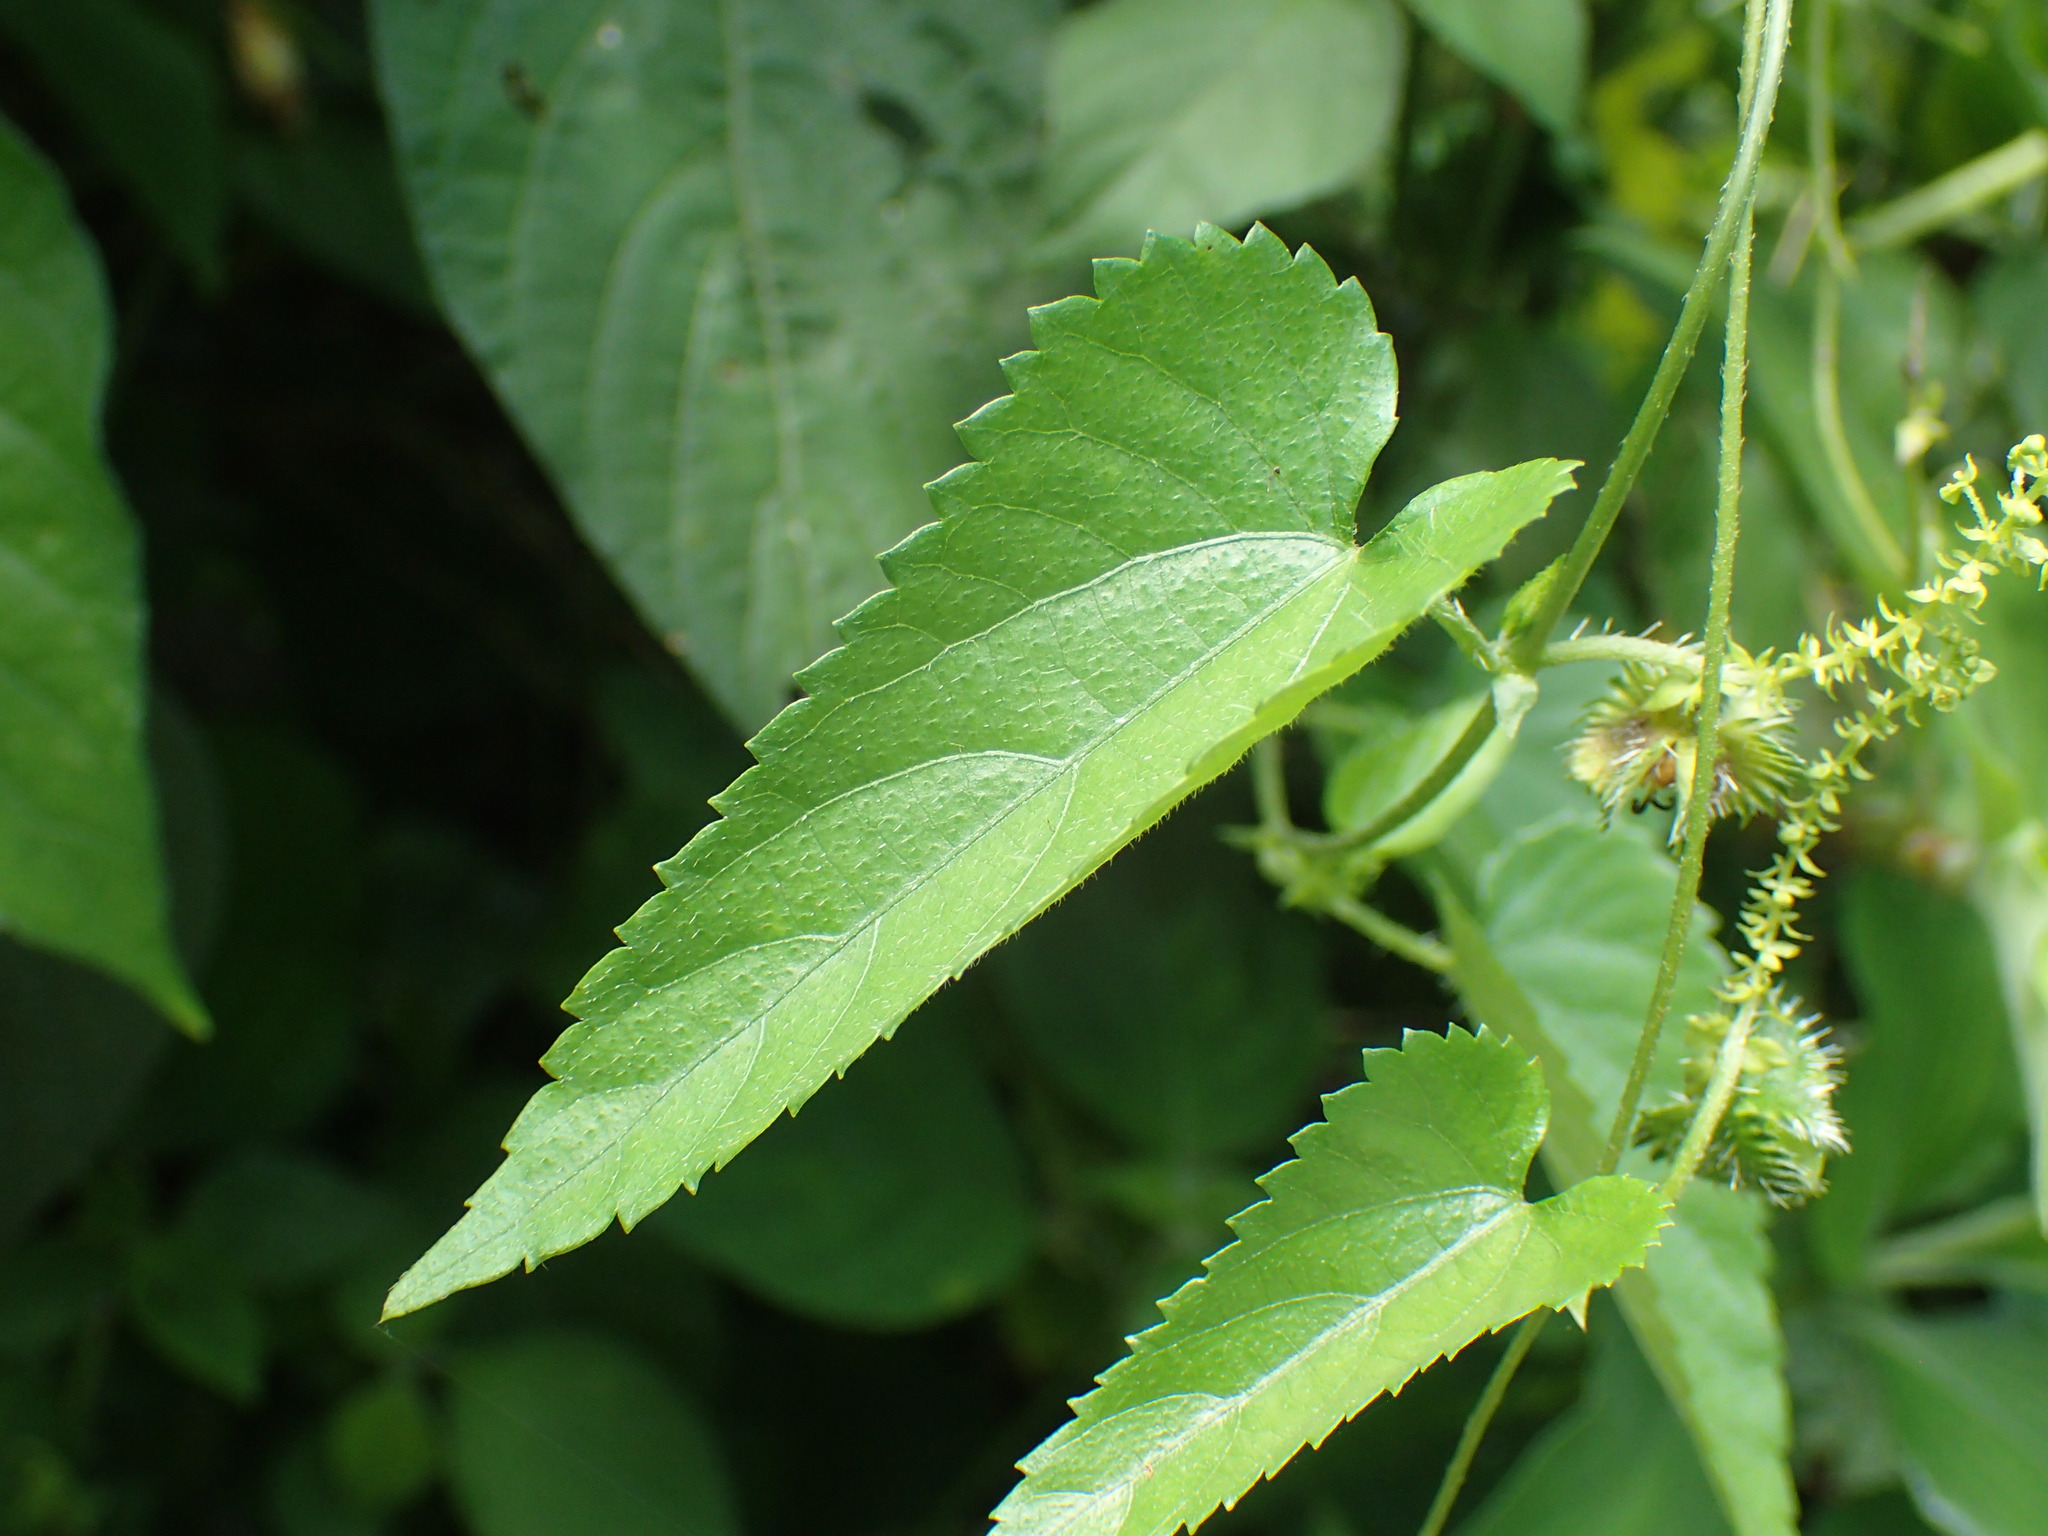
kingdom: Plantae
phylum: Tracheophyta
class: Magnoliopsida
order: Malpighiales
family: Euphorbiaceae
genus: Tragia
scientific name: Tragia durbanensis
